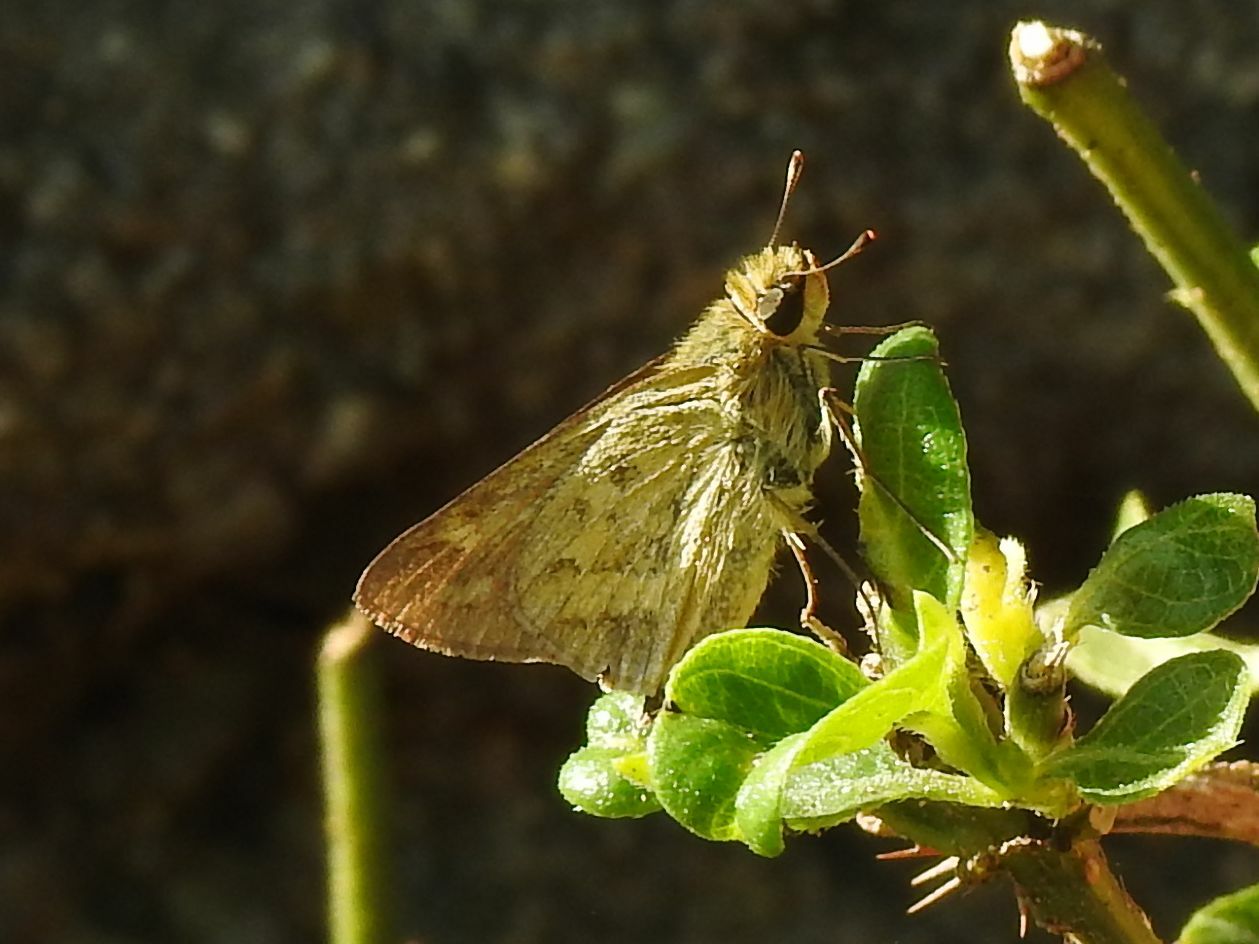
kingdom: Animalia
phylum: Arthropoda
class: Insecta
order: Hymenoptera
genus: Afrogenes
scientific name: Afrogenes
